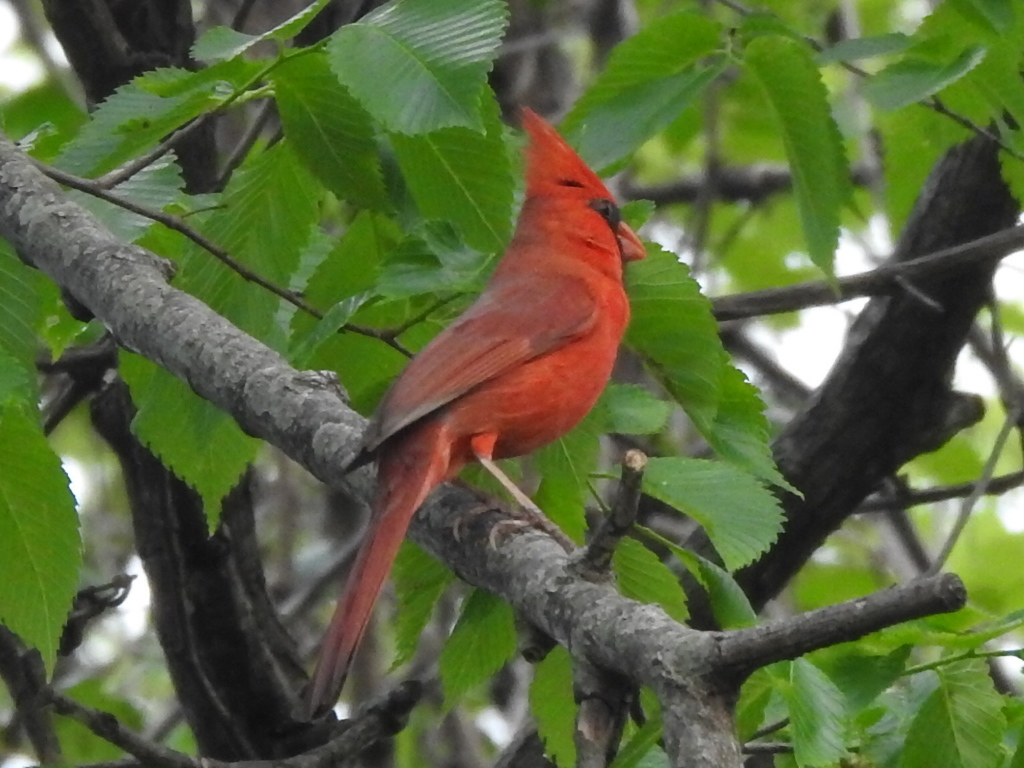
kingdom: Animalia
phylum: Chordata
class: Aves
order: Passeriformes
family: Cardinalidae
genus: Cardinalis
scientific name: Cardinalis cardinalis
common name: Northern cardinal
